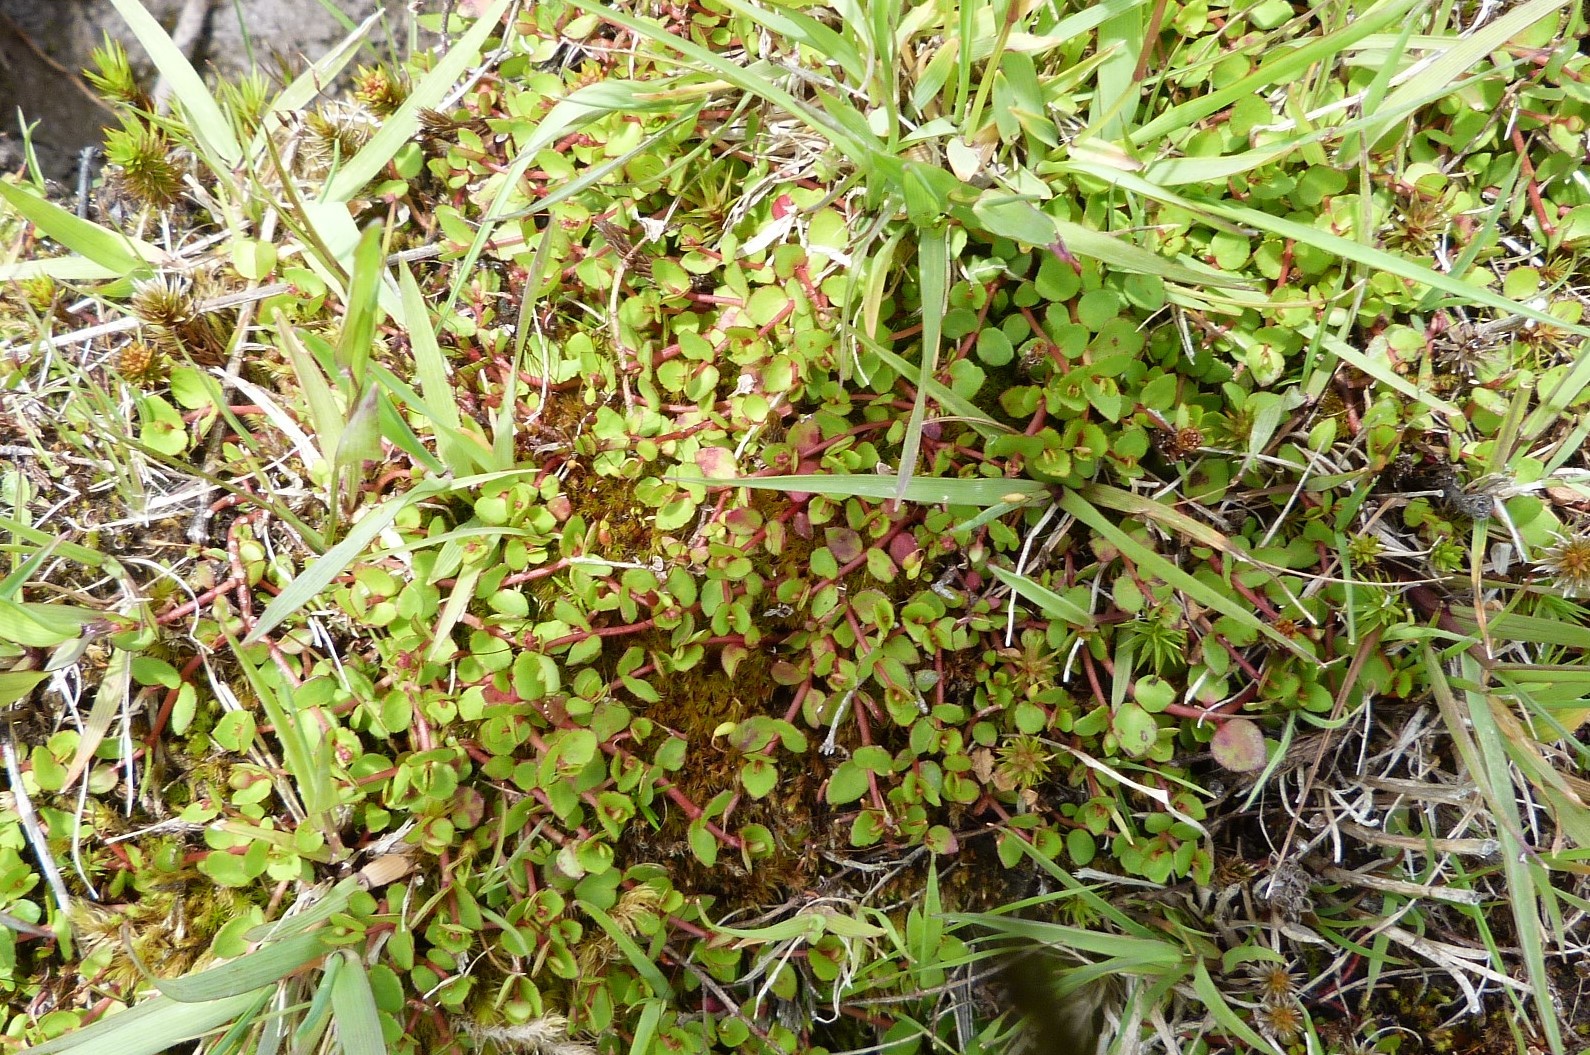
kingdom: Plantae
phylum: Tracheophyta
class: Magnoliopsida
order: Saxifragales
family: Haloragaceae
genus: Gonocarpus
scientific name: Gonocarpus micranthus
